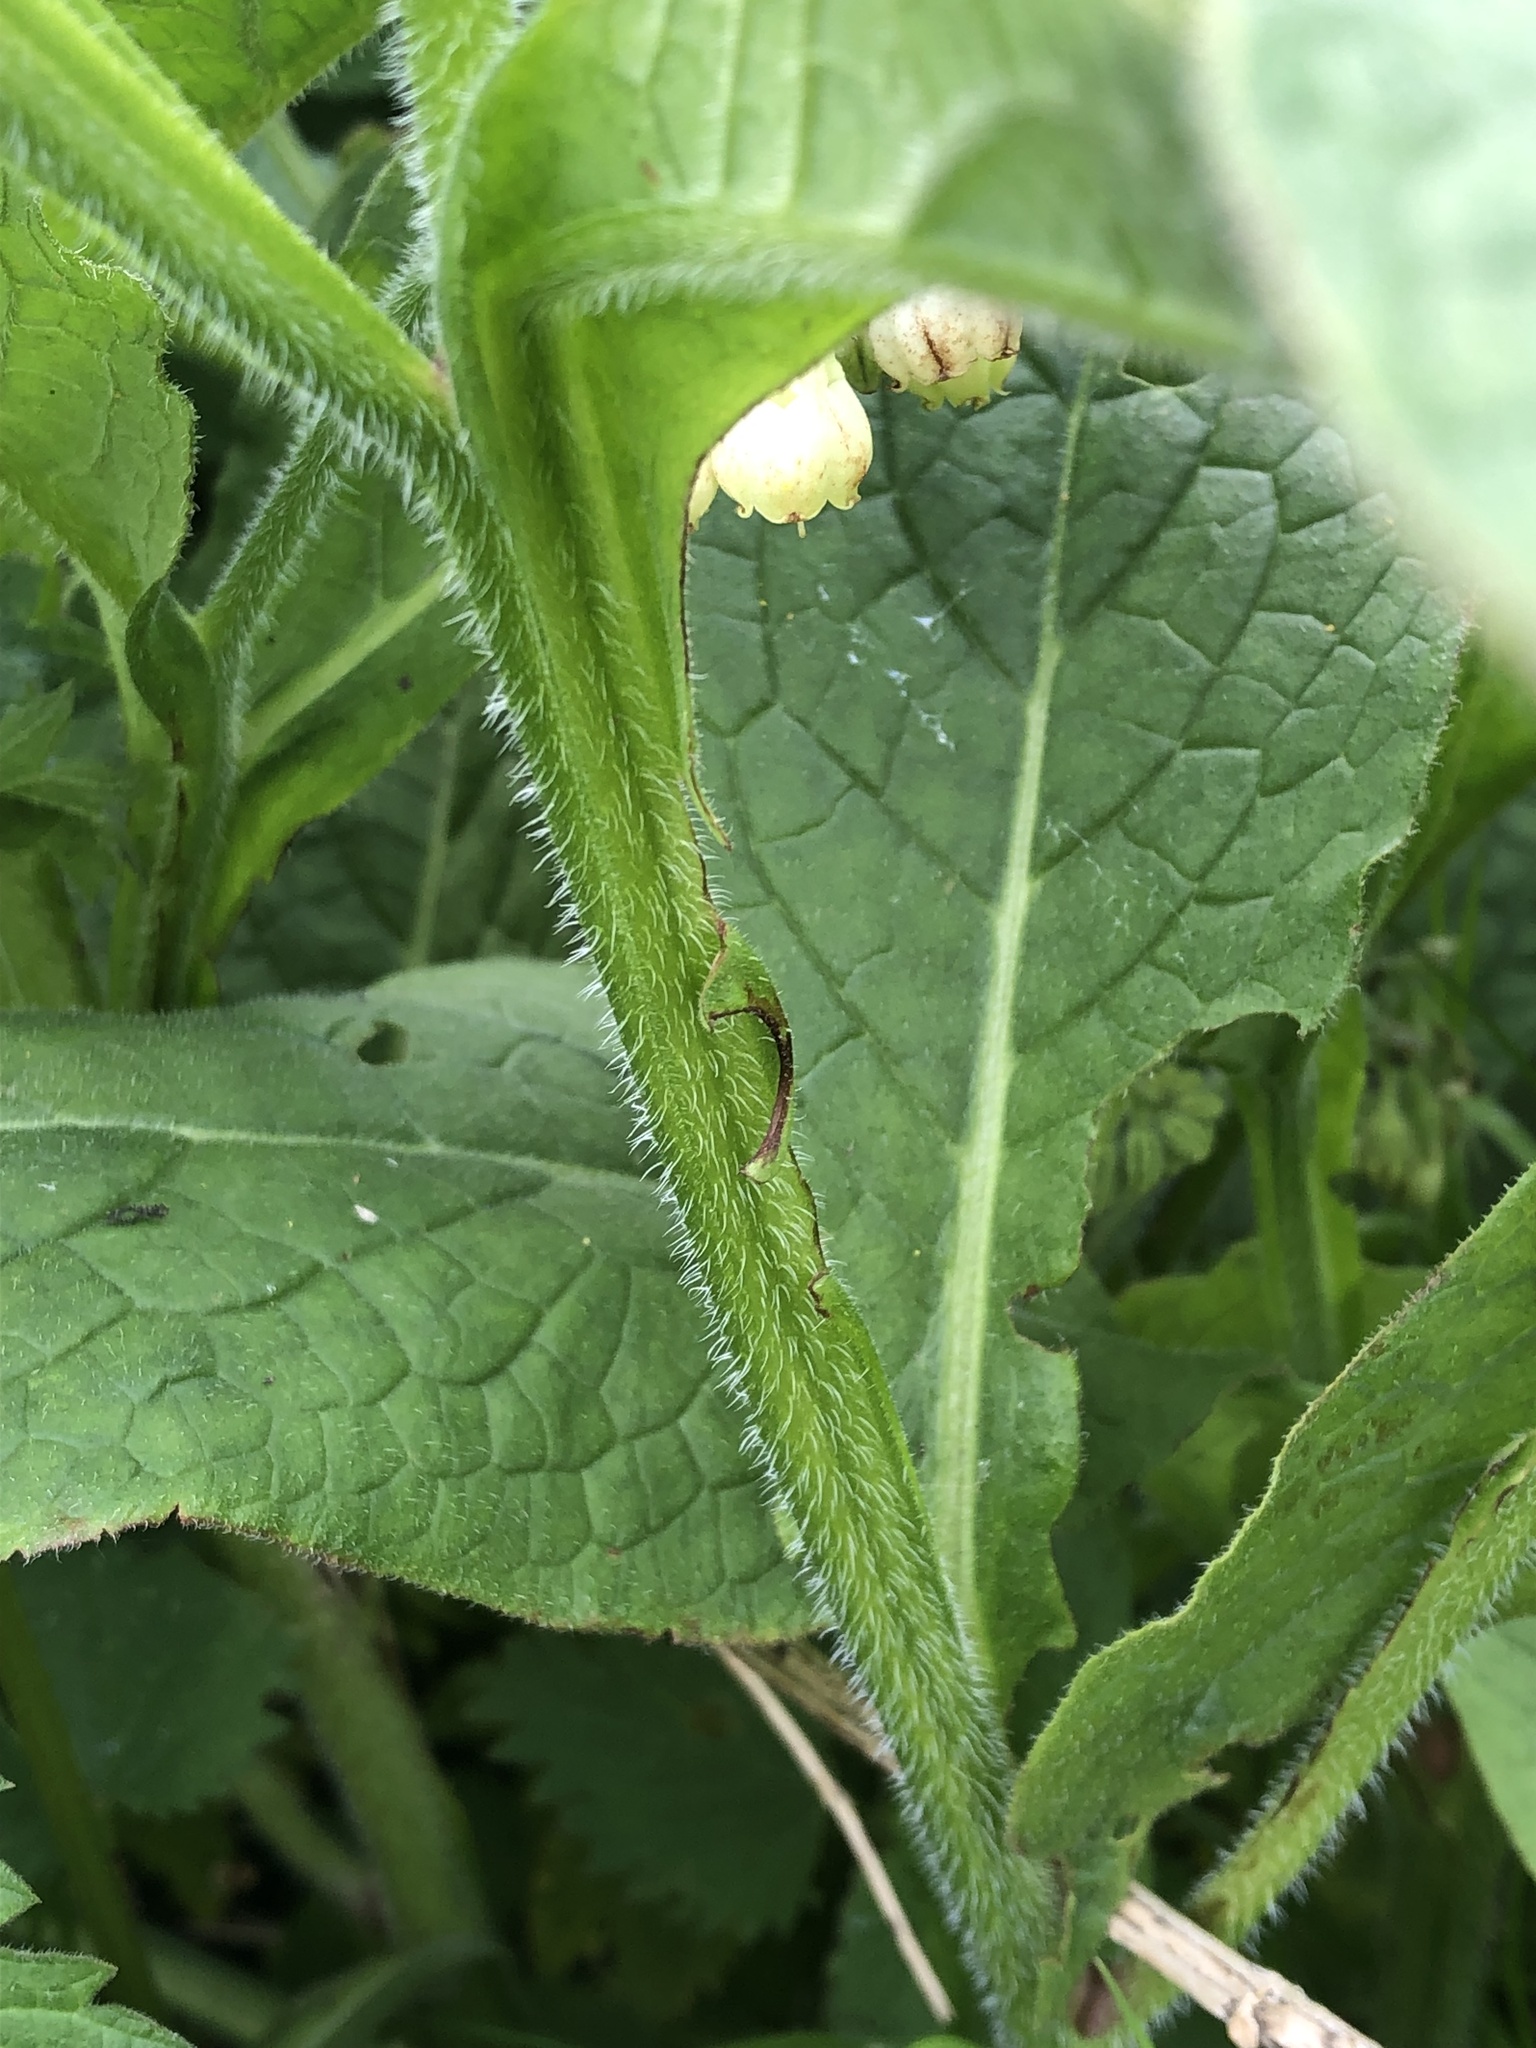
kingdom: Plantae
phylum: Tracheophyta
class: Magnoliopsida
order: Boraginales
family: Boraginaceae
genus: Symphytum
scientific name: Symphytum officinale
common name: Common comfrey
